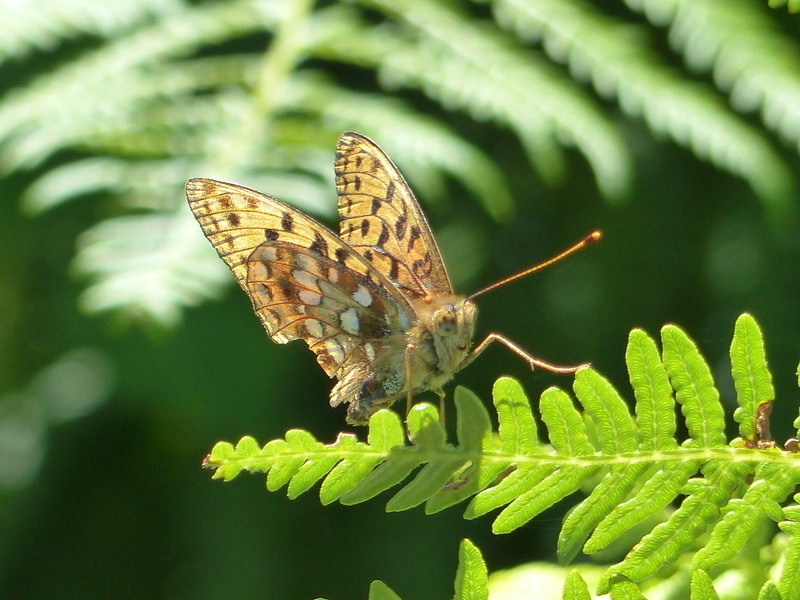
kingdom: Animalia
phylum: Arthropoda
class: Insecta
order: Lepidoptera
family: Nymphalidae
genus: Fabriciana
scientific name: Fabriciana adippe
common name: High brown fritillary
